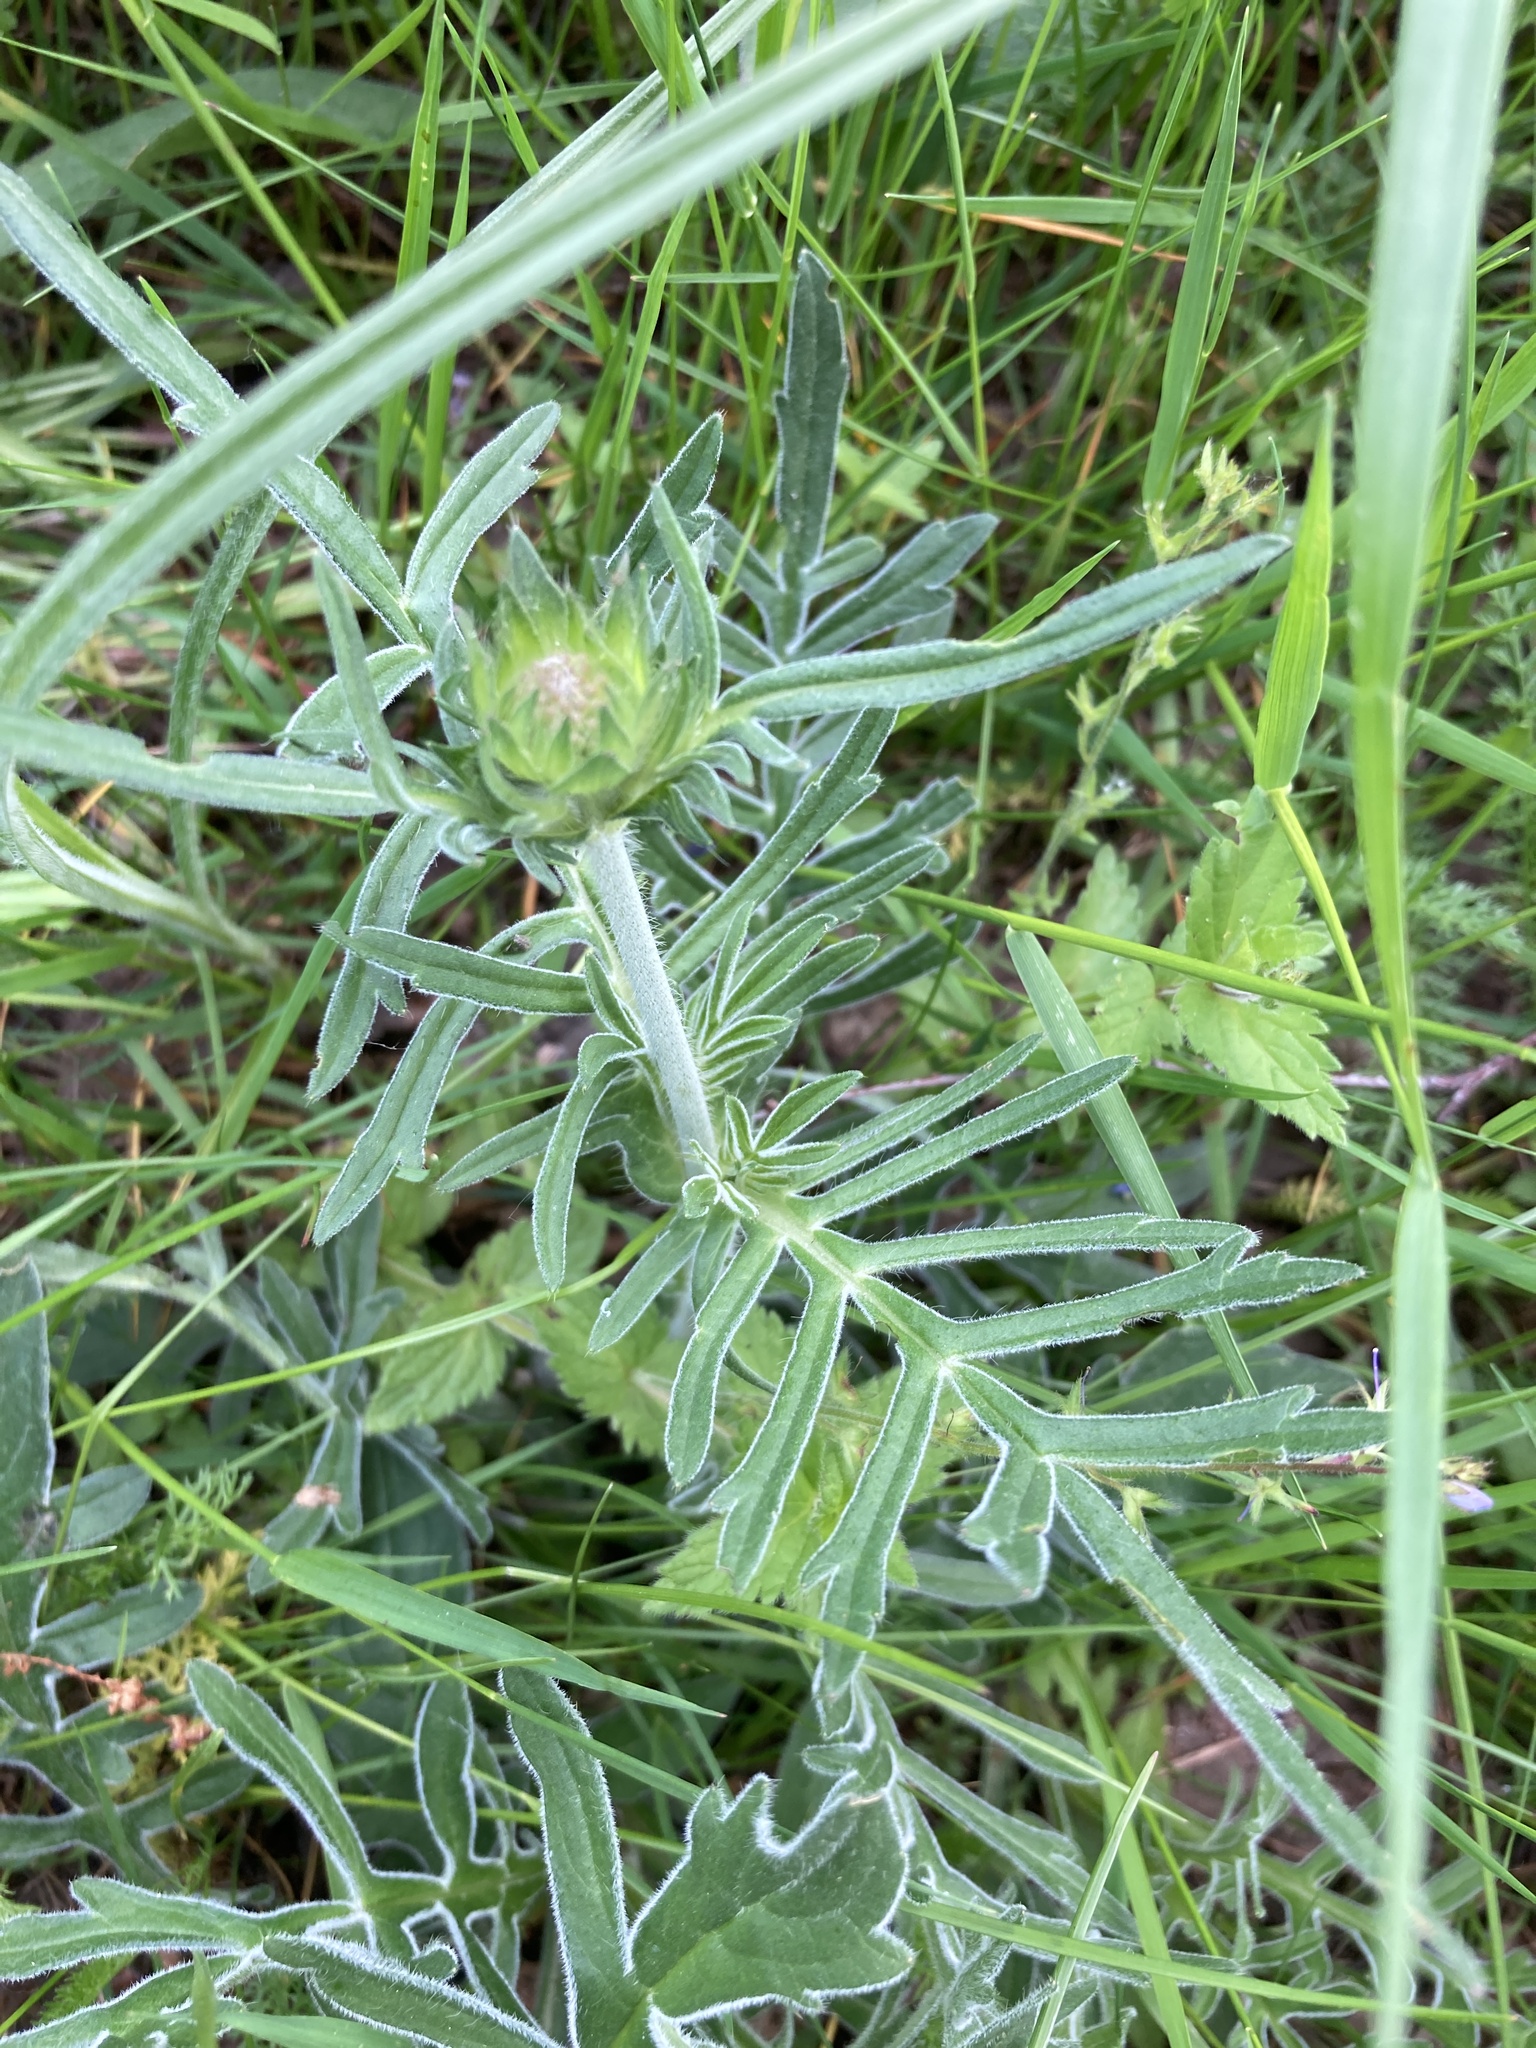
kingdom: Plantae
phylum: Tracheophyta
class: Magnoliopsida
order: Dipsacales
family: Caprifoliaceae
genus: Knautia
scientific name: Knautia arvensis
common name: Field scabiosa
